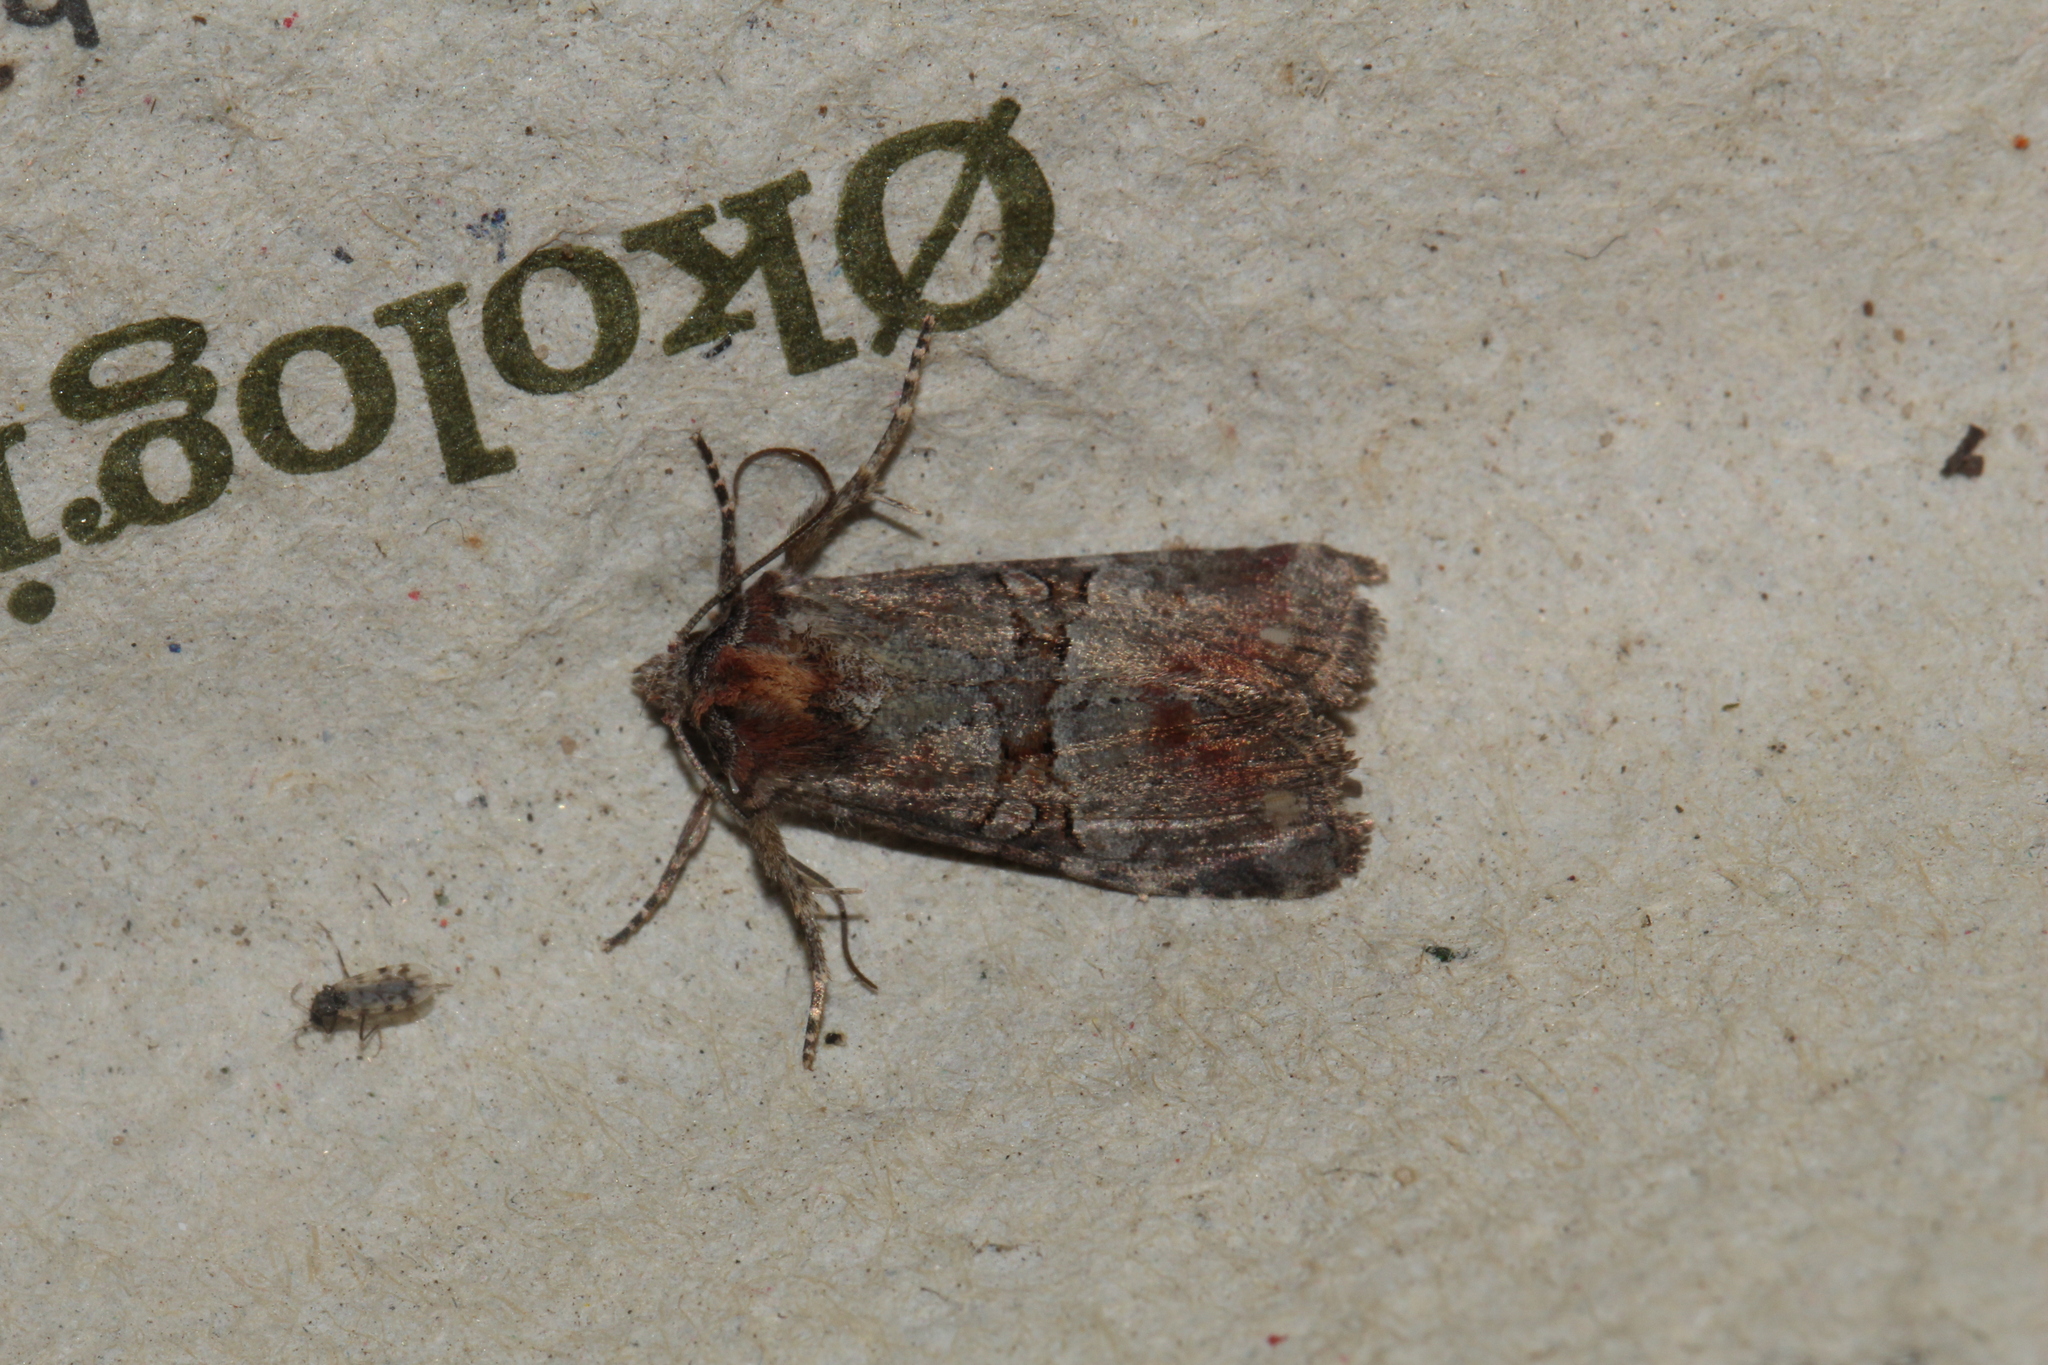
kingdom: Animalia
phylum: Arthropoda
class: Insecta
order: Lepidoptera
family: Noctuidae
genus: Litoligia
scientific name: Litoligia literosa
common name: Rosy minor
